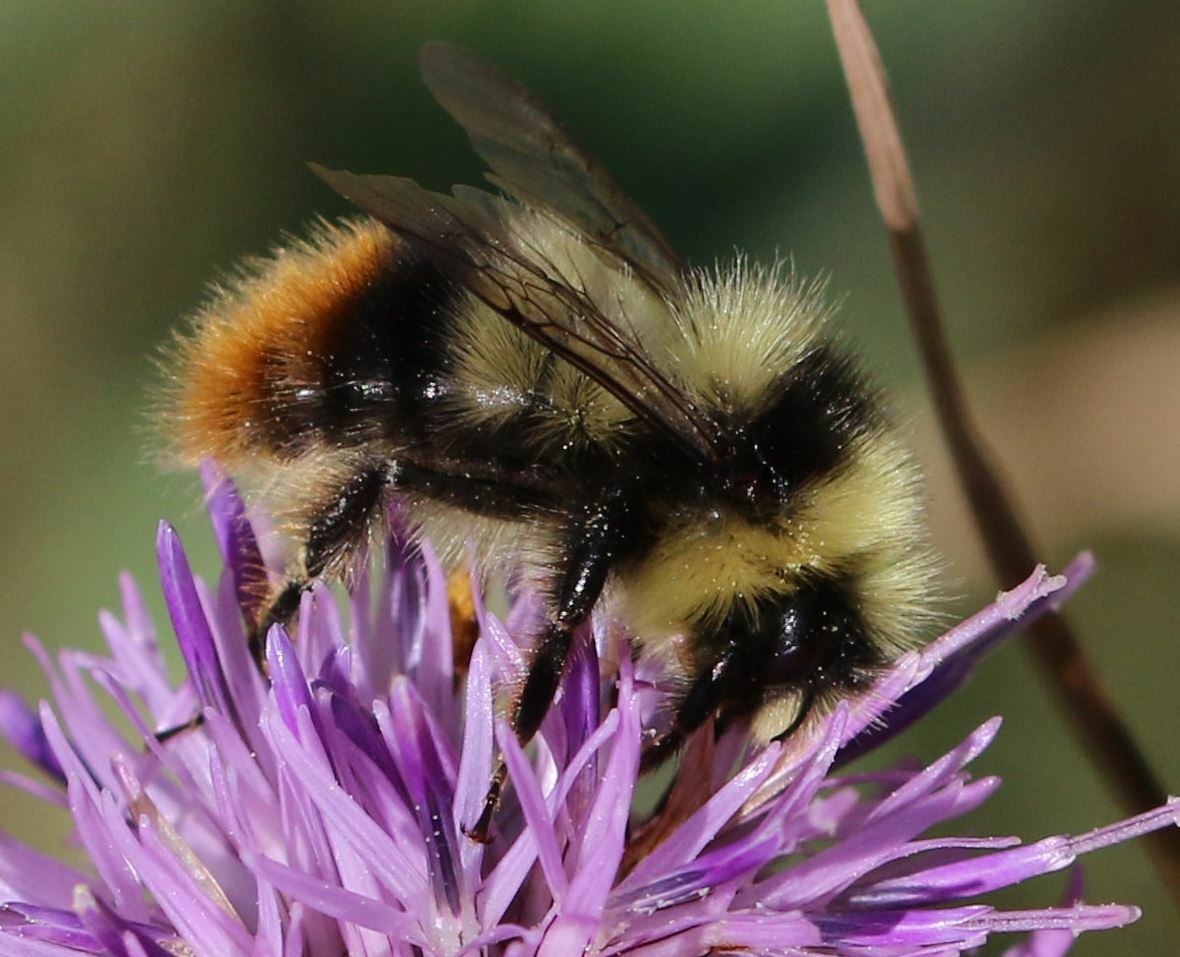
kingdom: Animalia
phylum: Arthropoda
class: Insecta
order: Hymenoptera
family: Apidae
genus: Bombus
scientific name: Bombus sichelii
